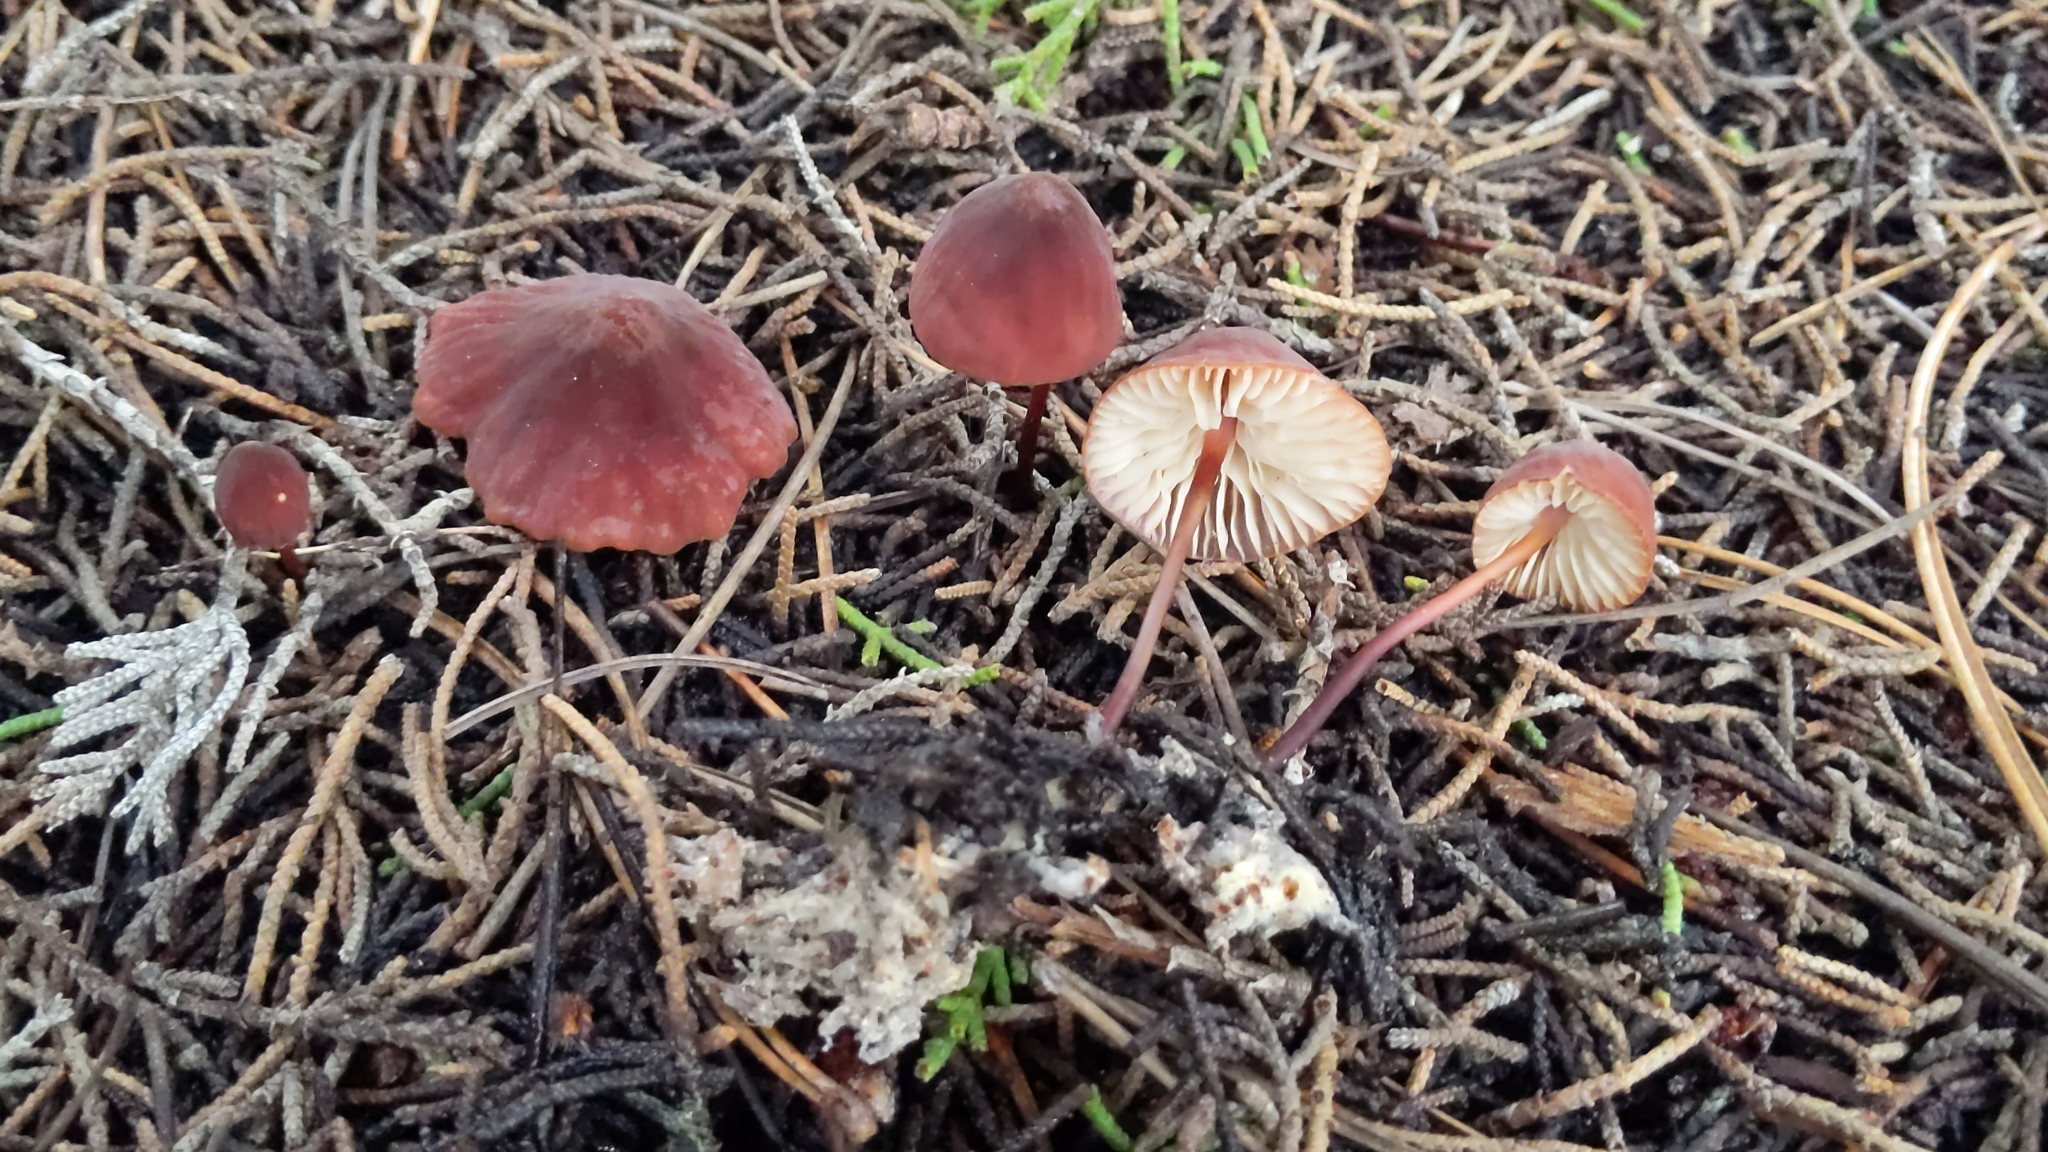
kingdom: Fungi
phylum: Basidiomycota
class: Agaricomycetes
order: Agaricales
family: Marasmiaceae
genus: Marasmius
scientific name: Marasmius plicatulus
